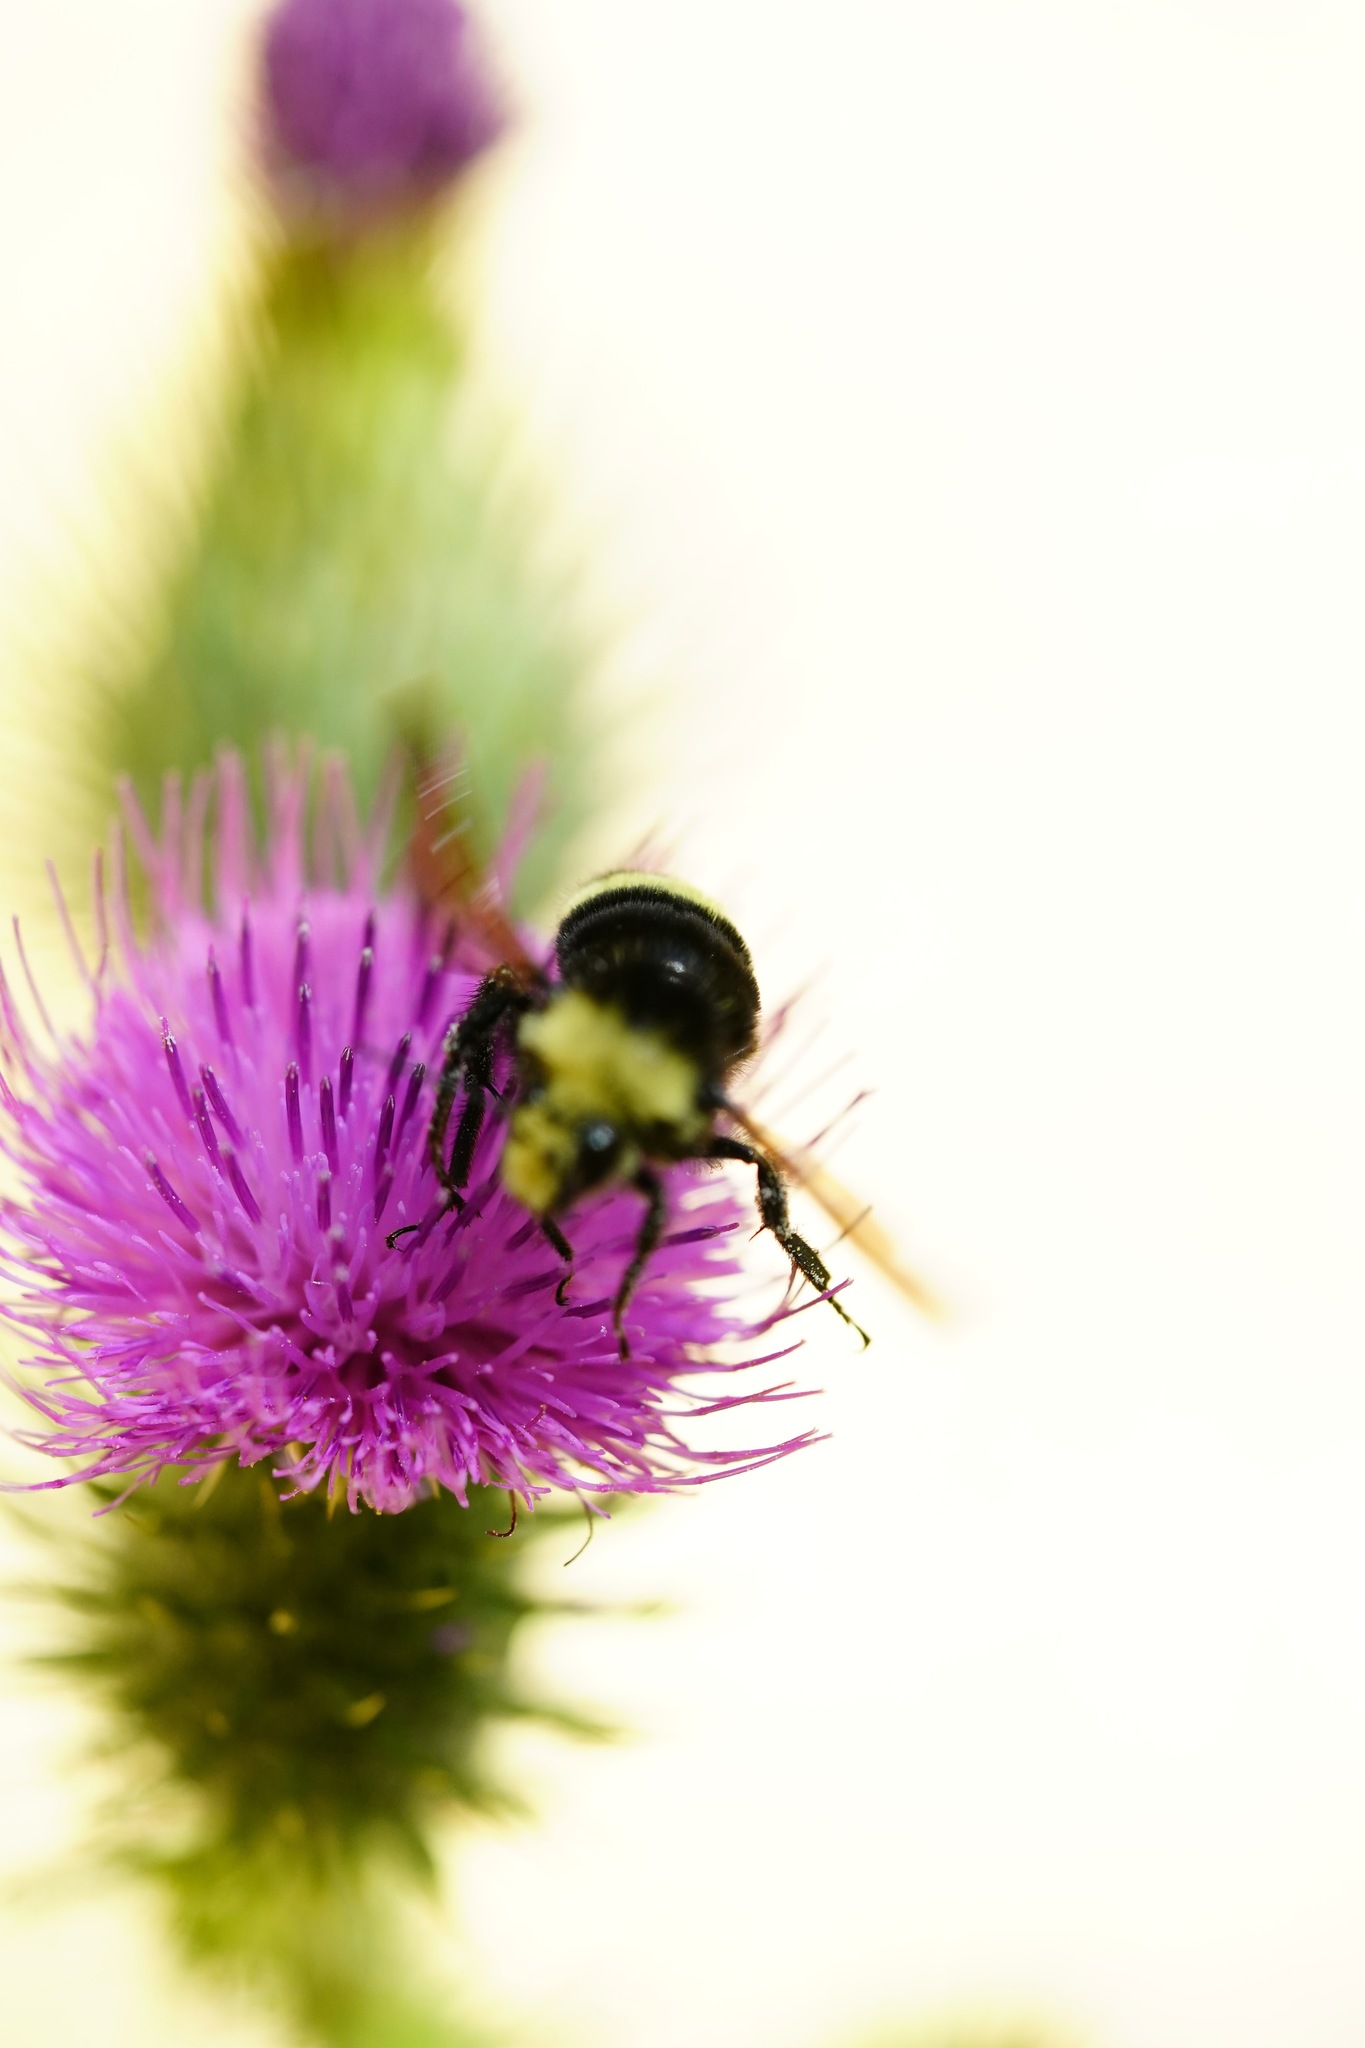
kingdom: Animalia
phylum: Arthropoda
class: Insecta
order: Hymenoptera
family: Apidae
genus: Bombus
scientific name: Bombus vosnesenskii
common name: Vosnesensky bumble bee
